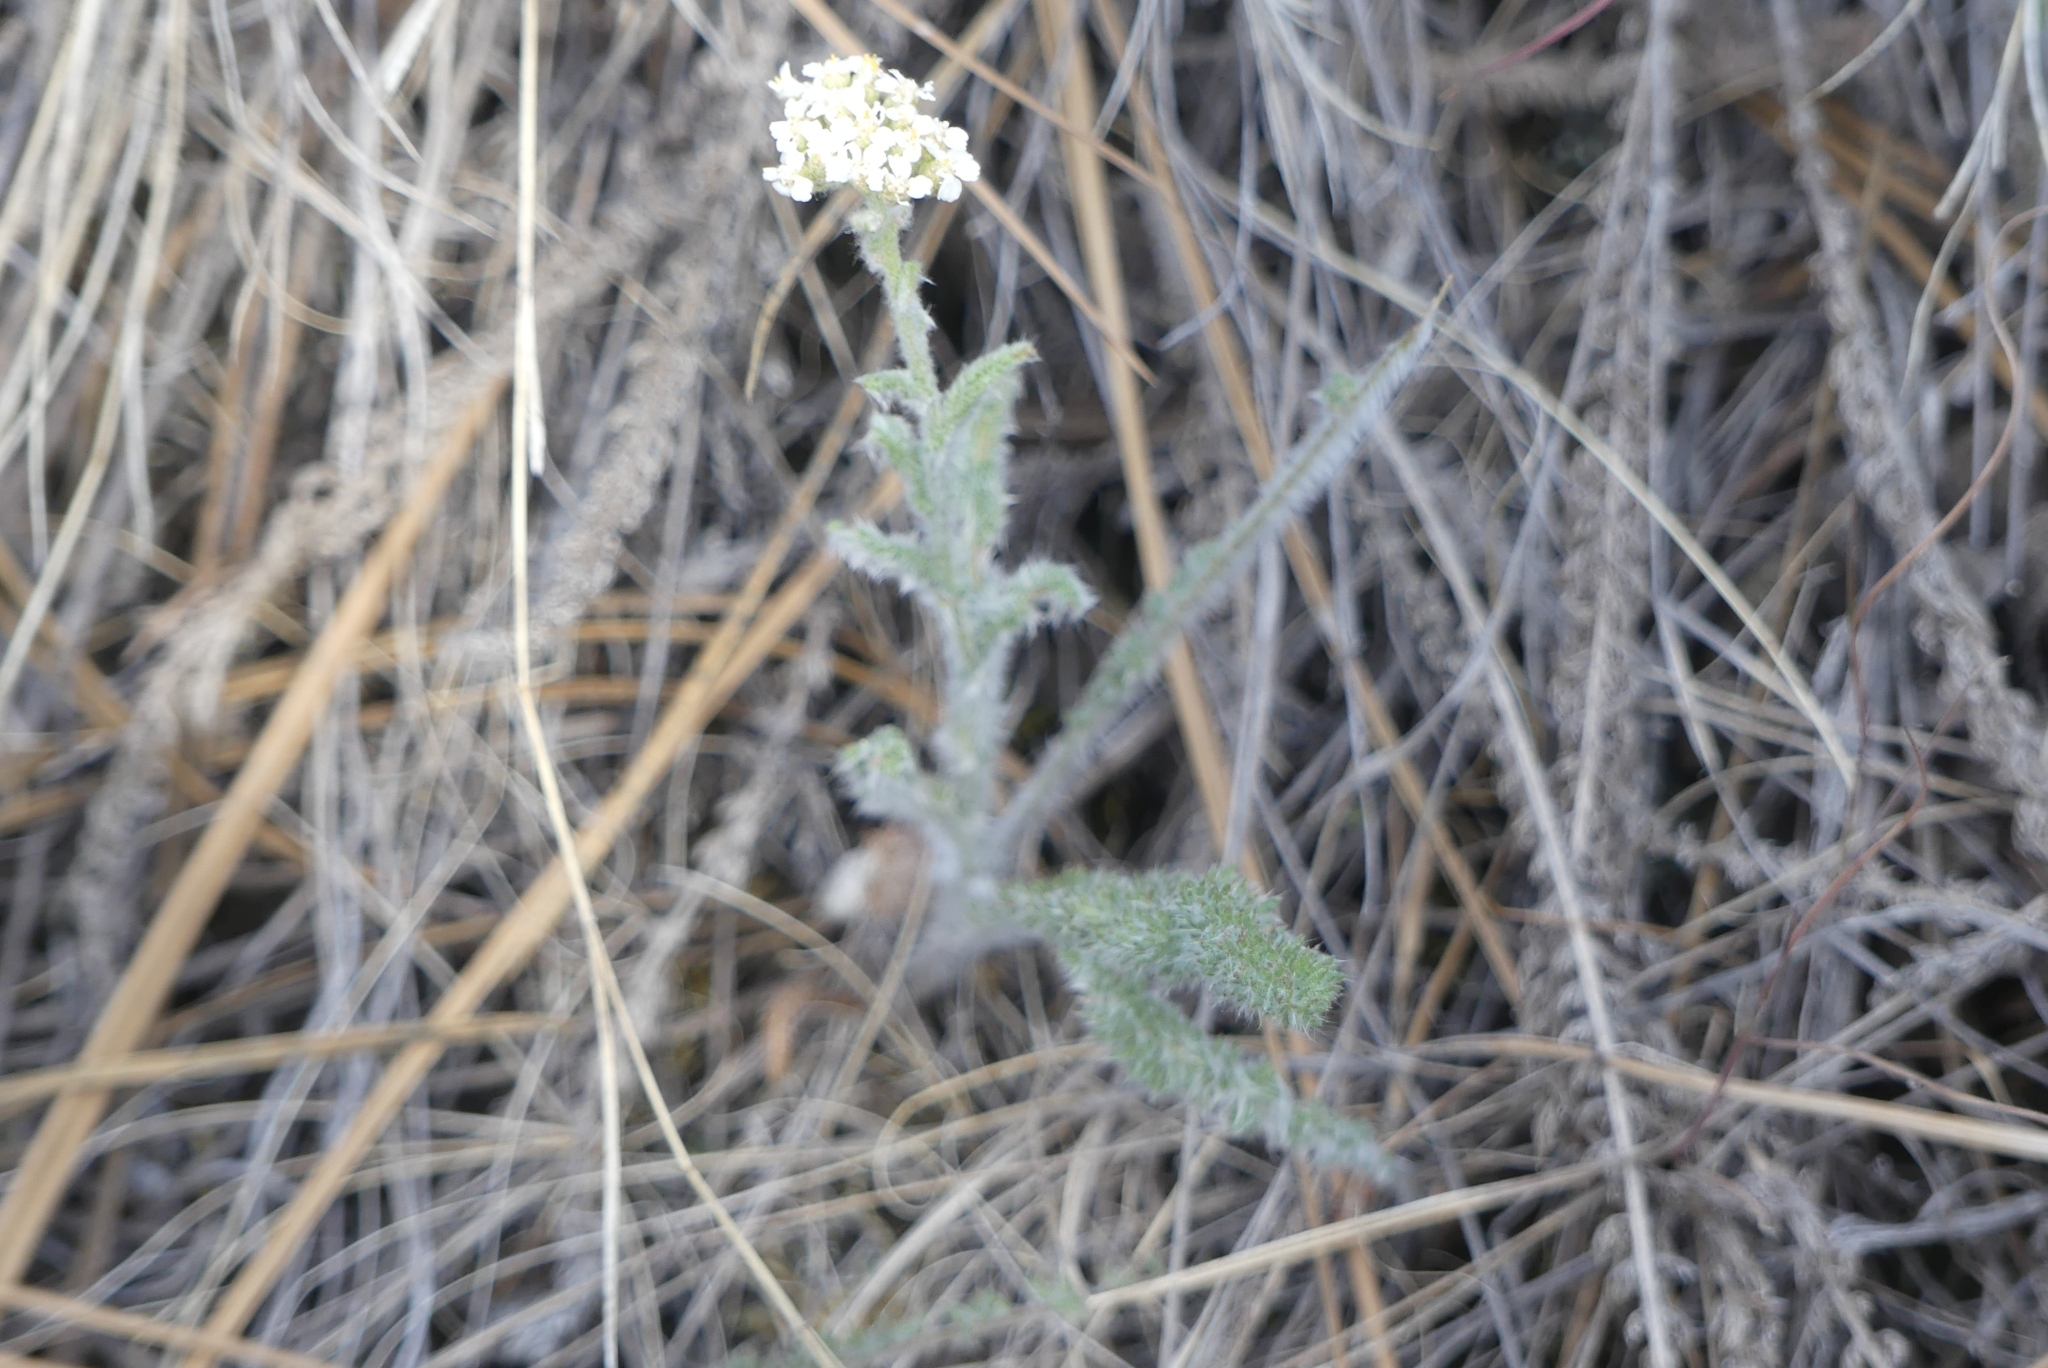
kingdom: Plantae
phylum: Tracheophyta
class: Magnoliopsida
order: Asterales
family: Asteraceae
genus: Achillea
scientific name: Achillea millefolium
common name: Yarrow
